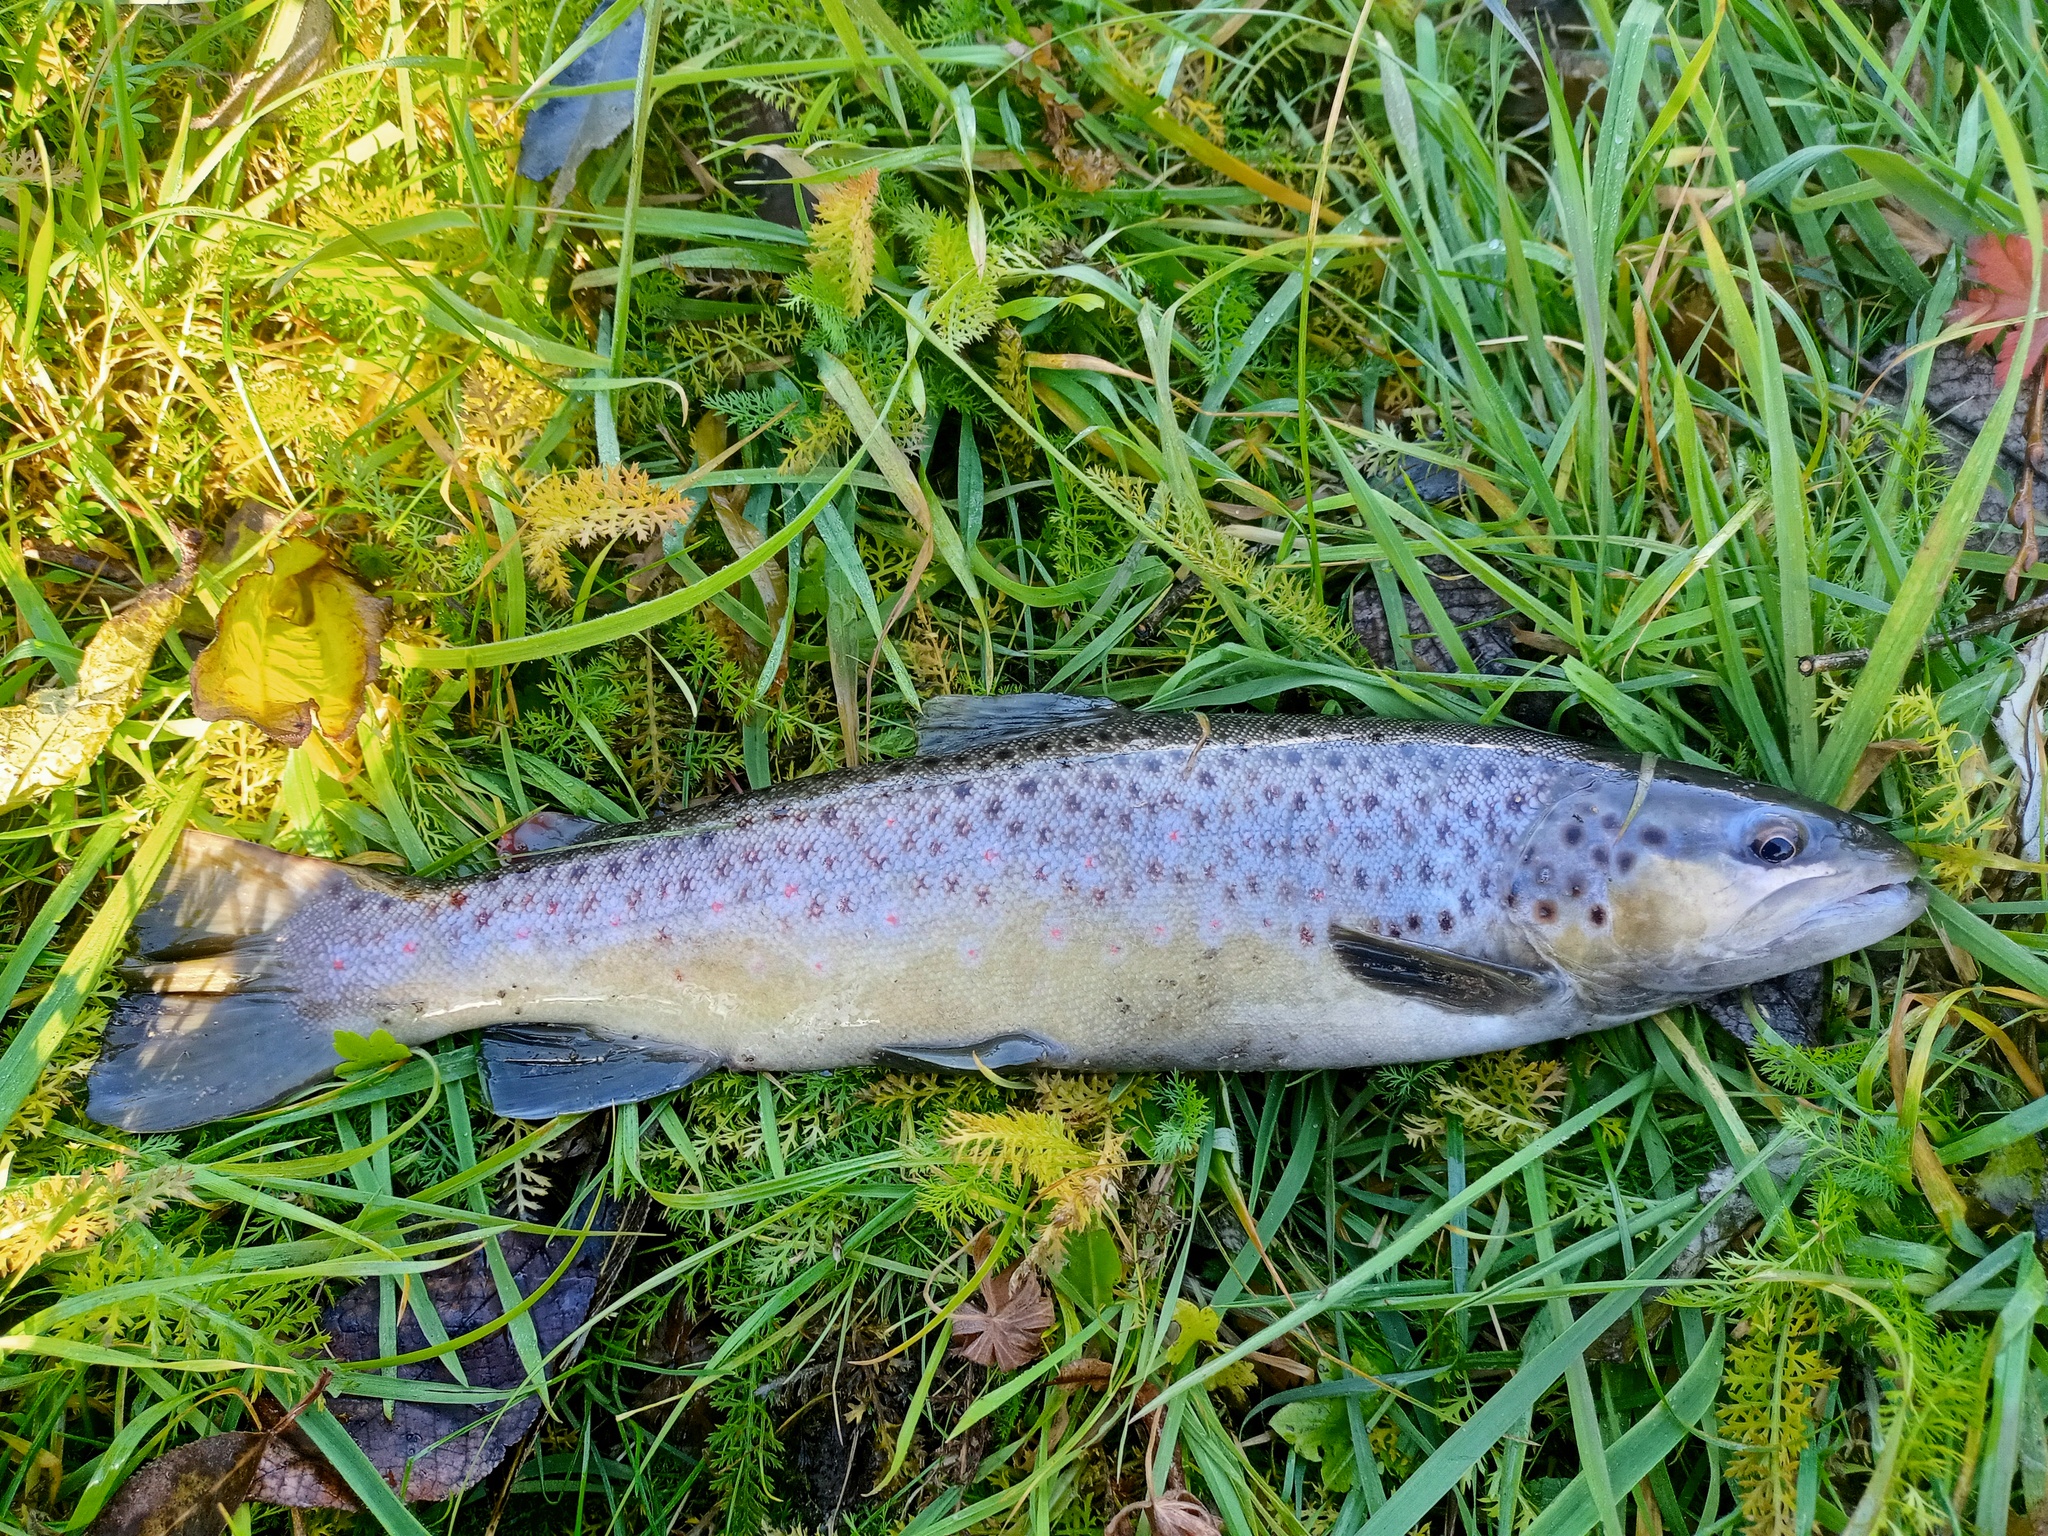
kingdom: Animalia
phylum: Chordata
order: Salmoniformes
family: Salmonidae
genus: Salmo
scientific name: Salmo trutta
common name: Brown trout
